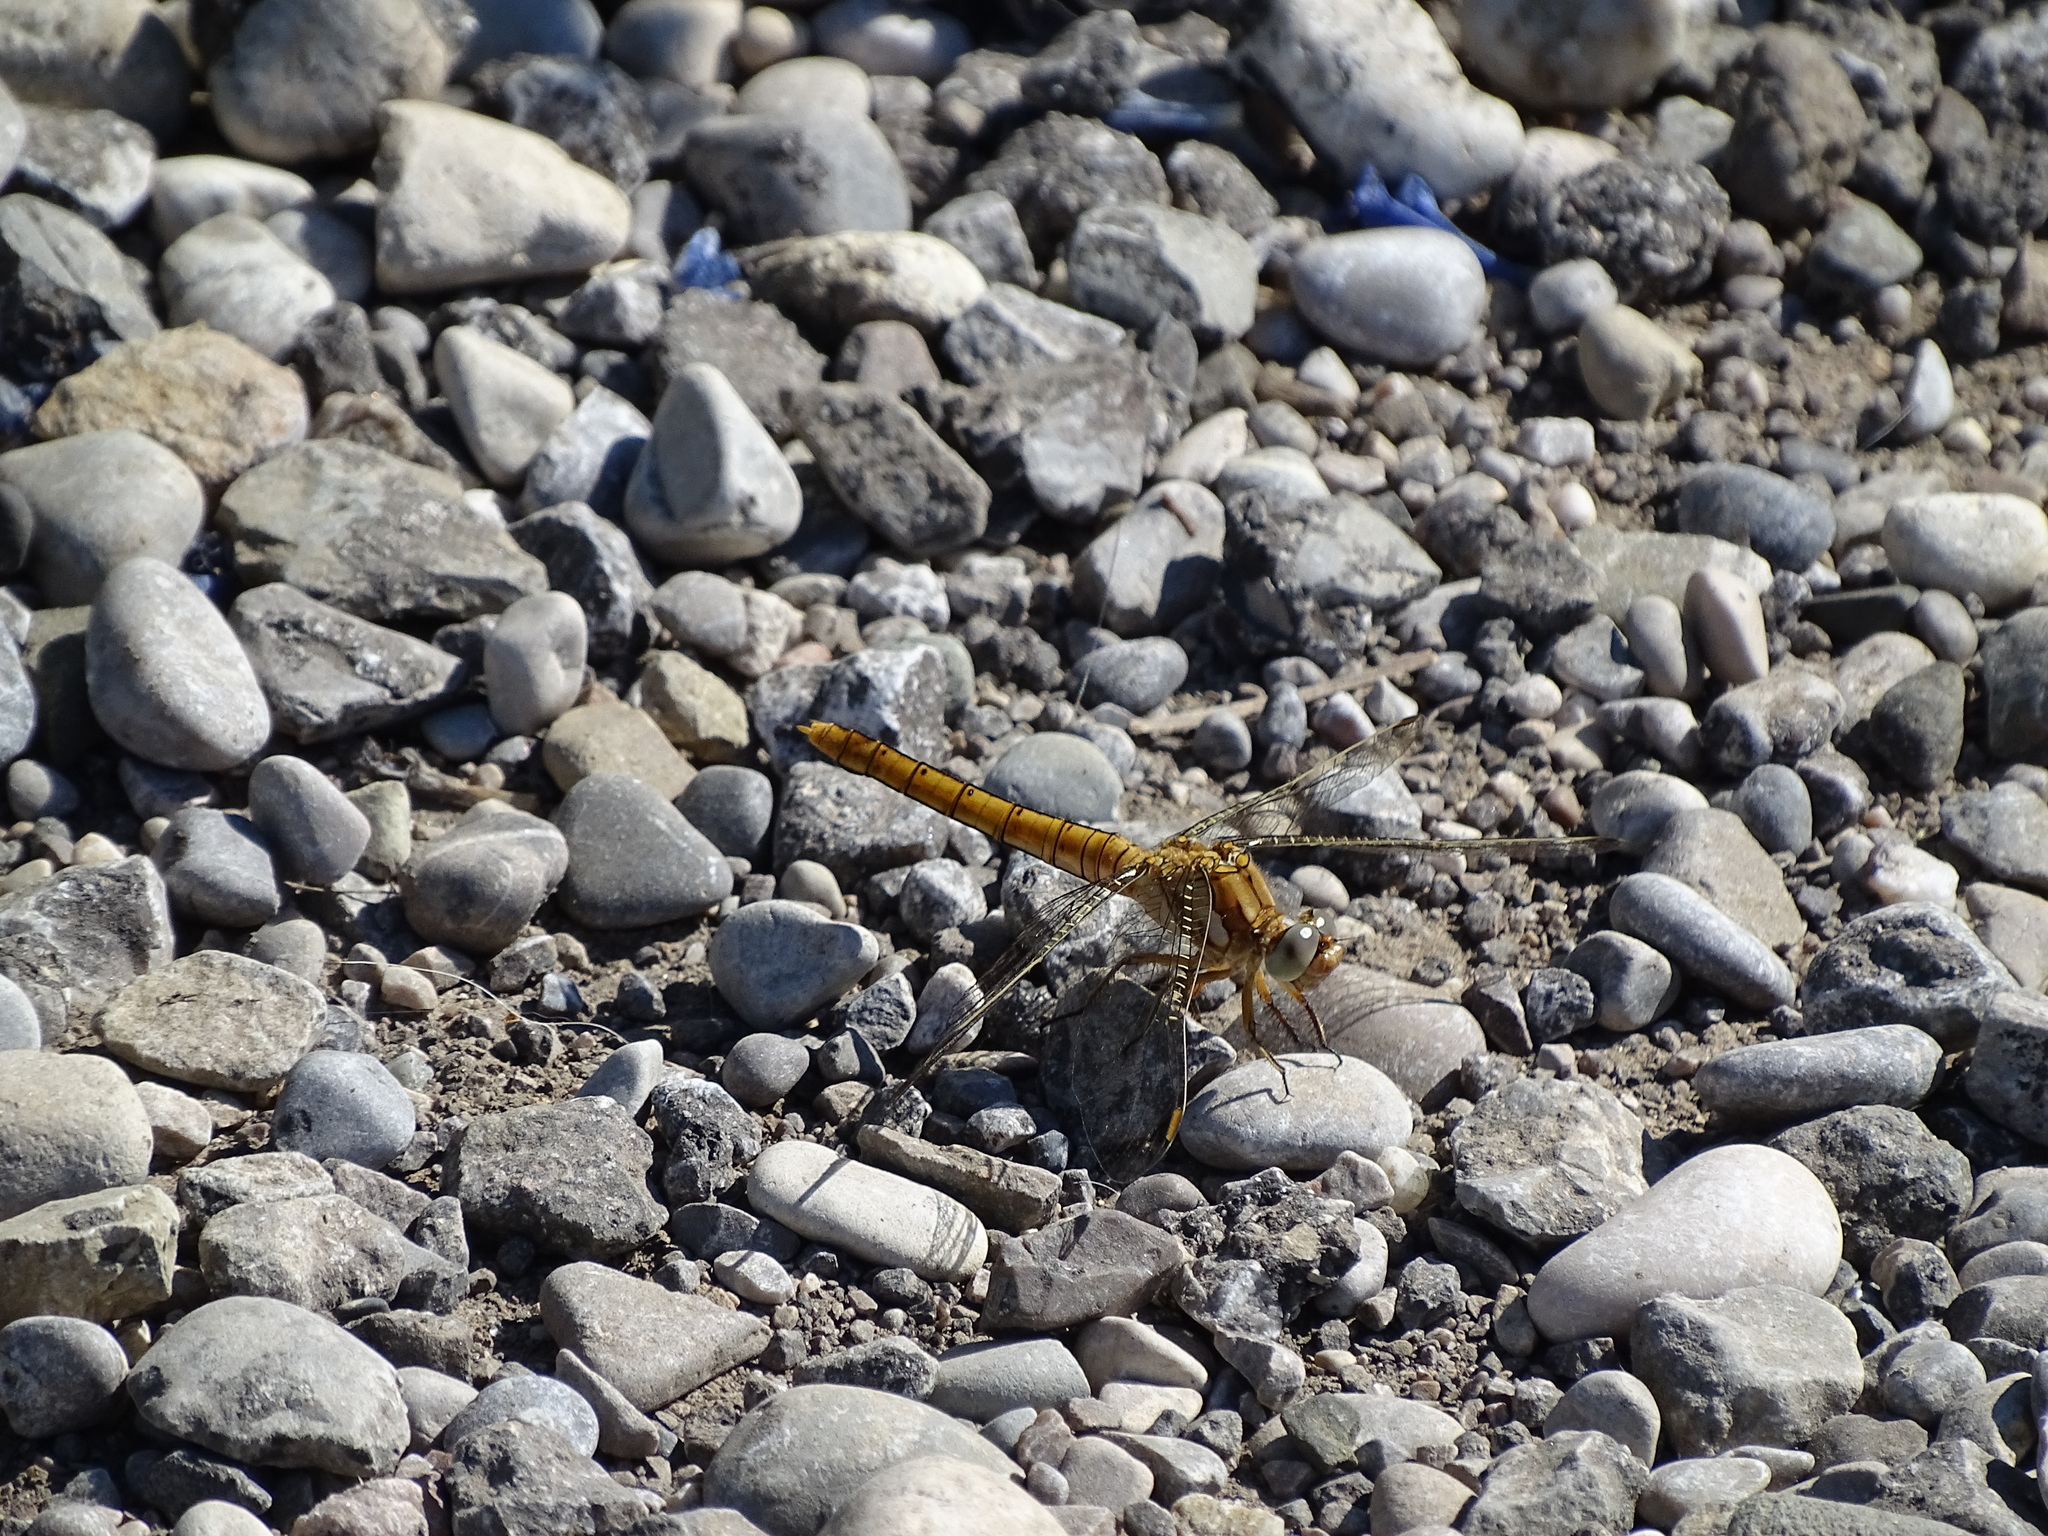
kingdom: Animalia
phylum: Arthropoda
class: Insecta
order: Odonata
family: Libellulidae
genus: Orthetrum
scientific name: Orthetrum brunneum
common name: Southern skimmer
